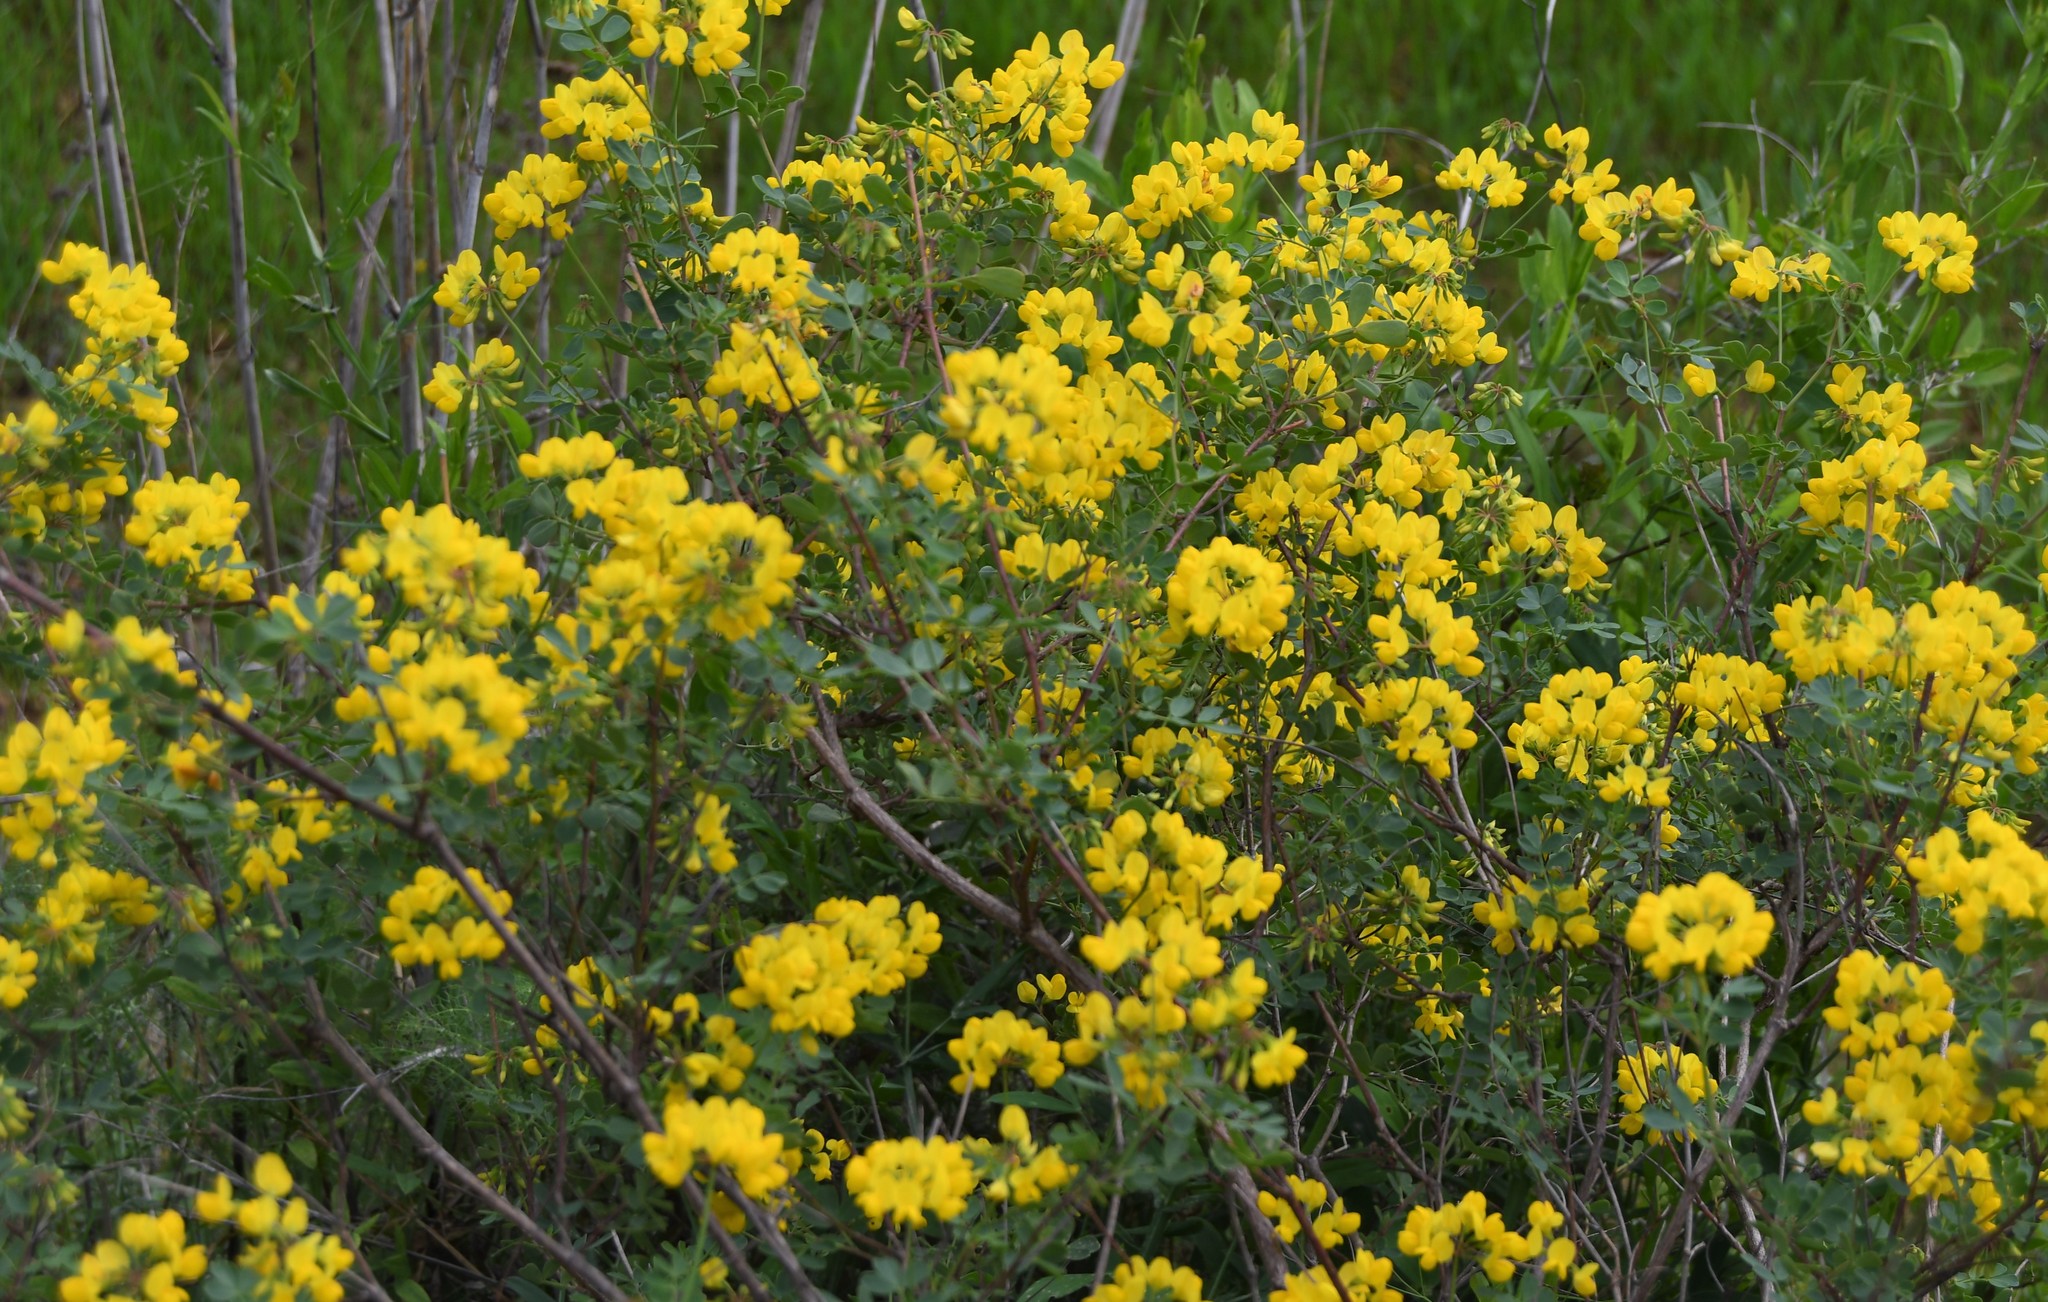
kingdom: Plantae
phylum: Tracheophyta
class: Magnoliopsida
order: Fabales
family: Fabaceae
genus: Coronilla
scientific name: Coronilla valentina
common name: Shrubby scorpion-vetch
